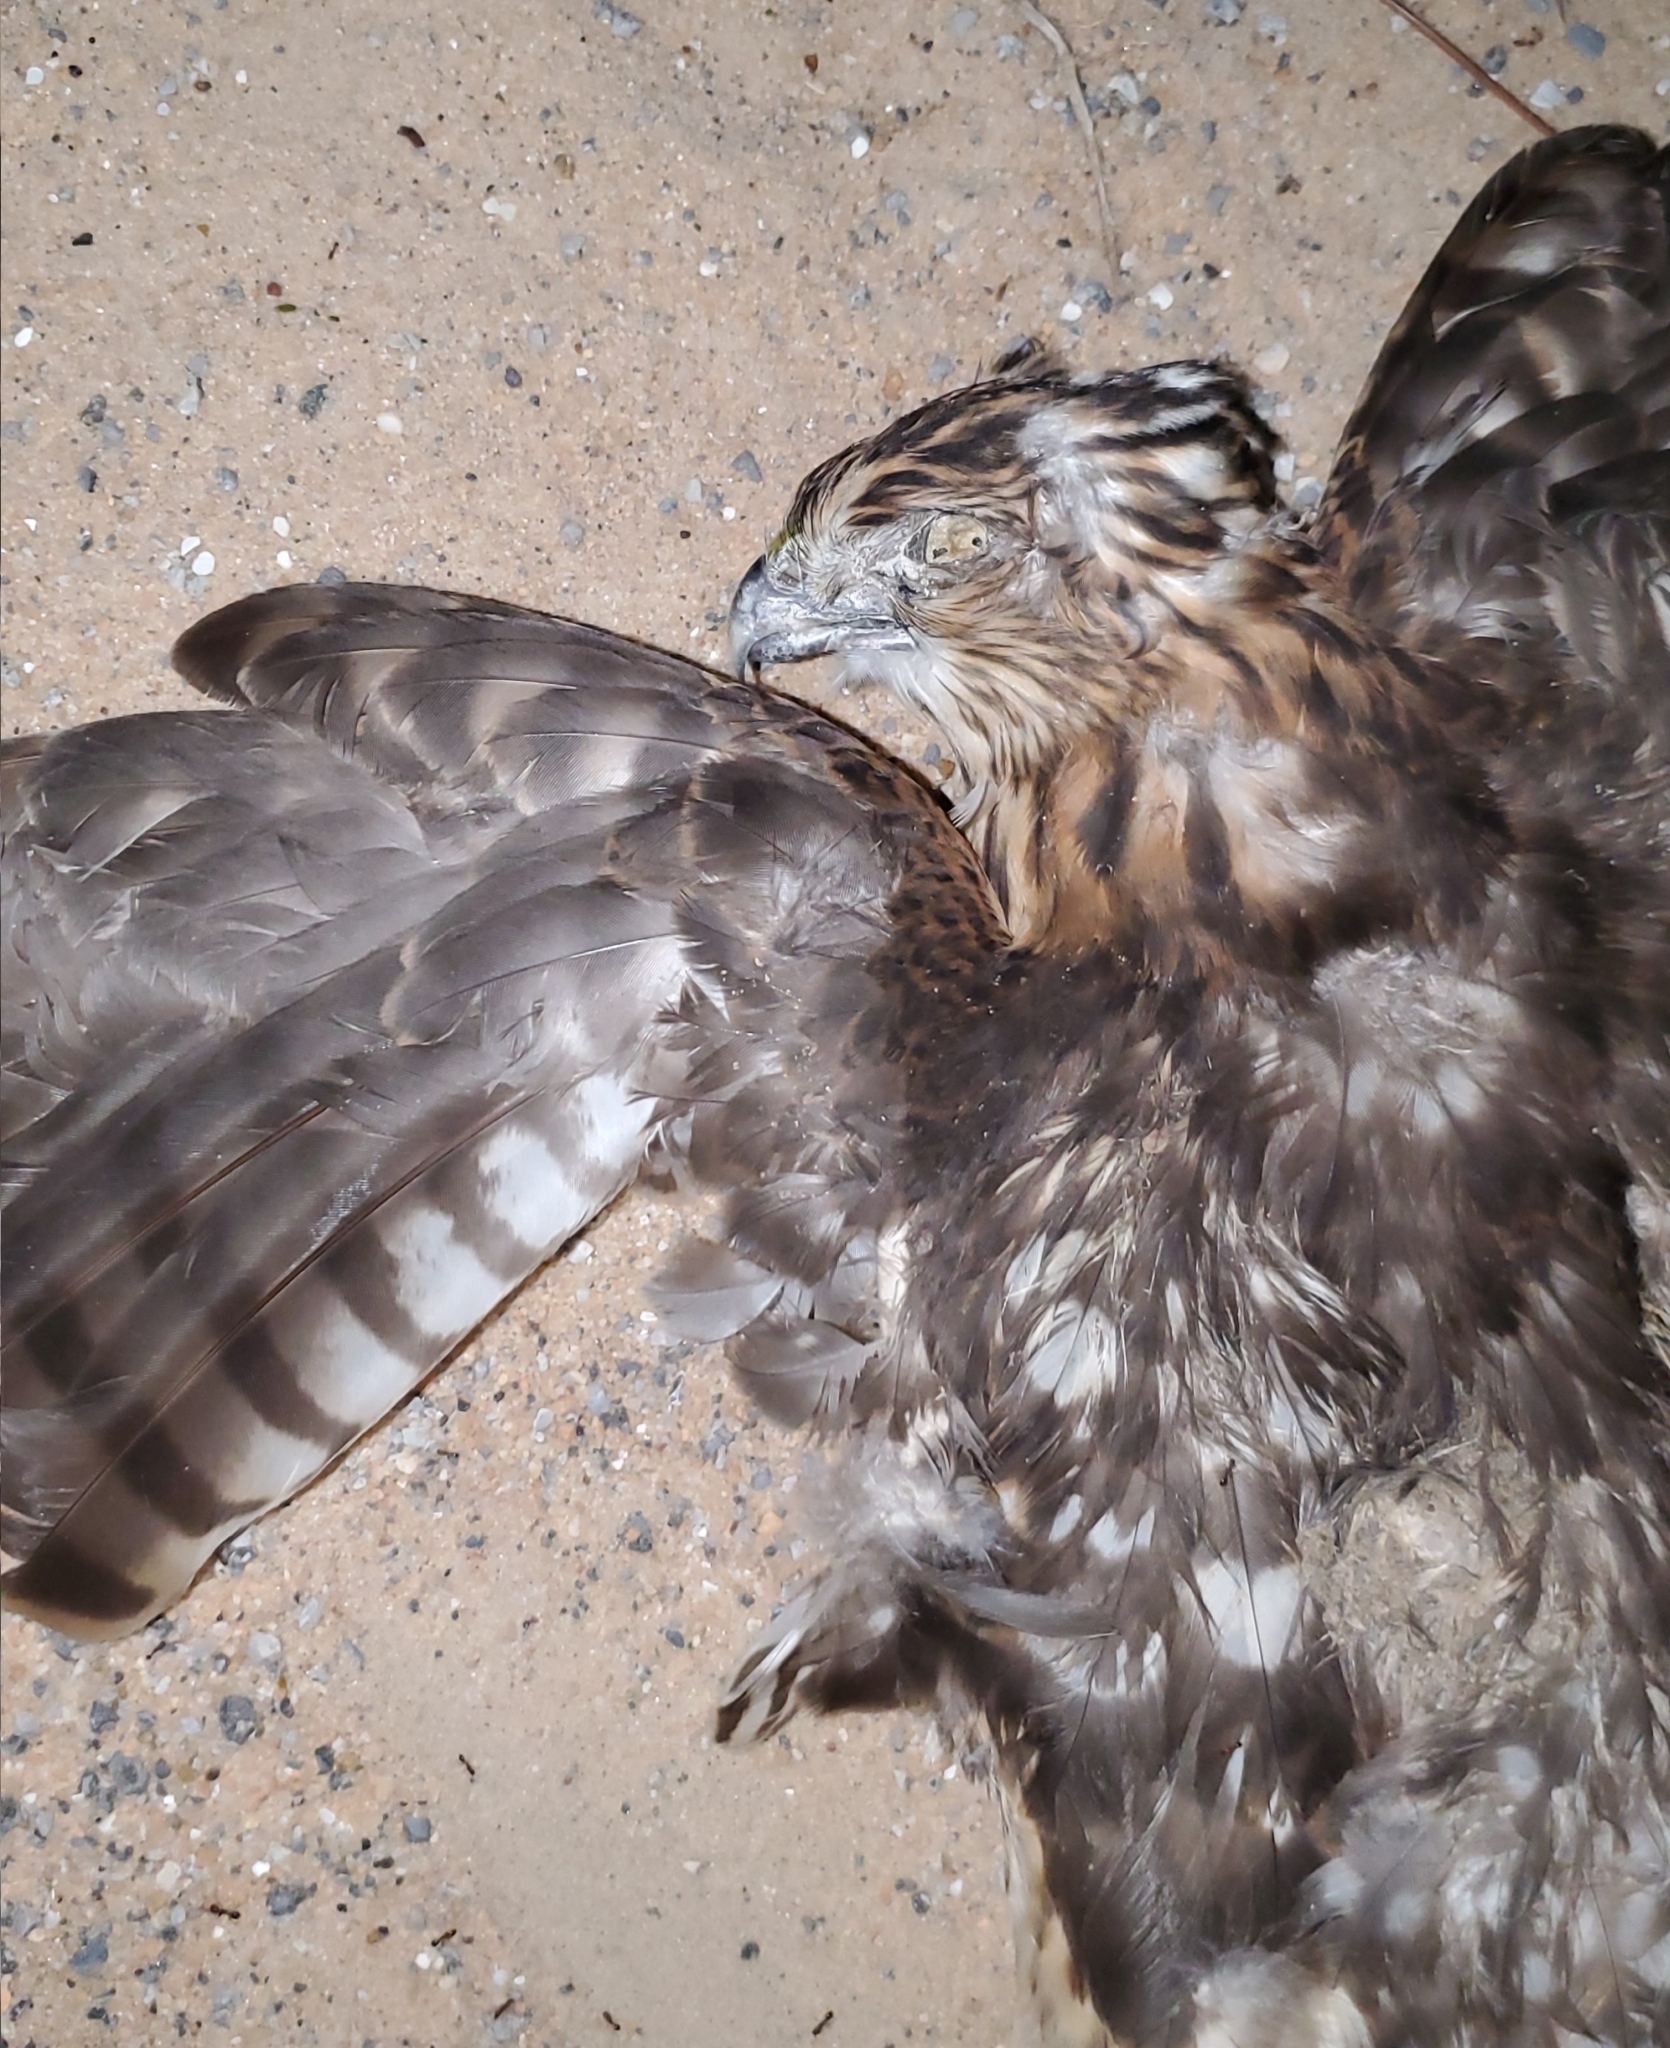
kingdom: Animalia
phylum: Chordata
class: Aves
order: Accipitriformes
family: Accipitridae
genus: Accipiter
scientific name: Accipiter cooperii
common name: Cooper's hawk
